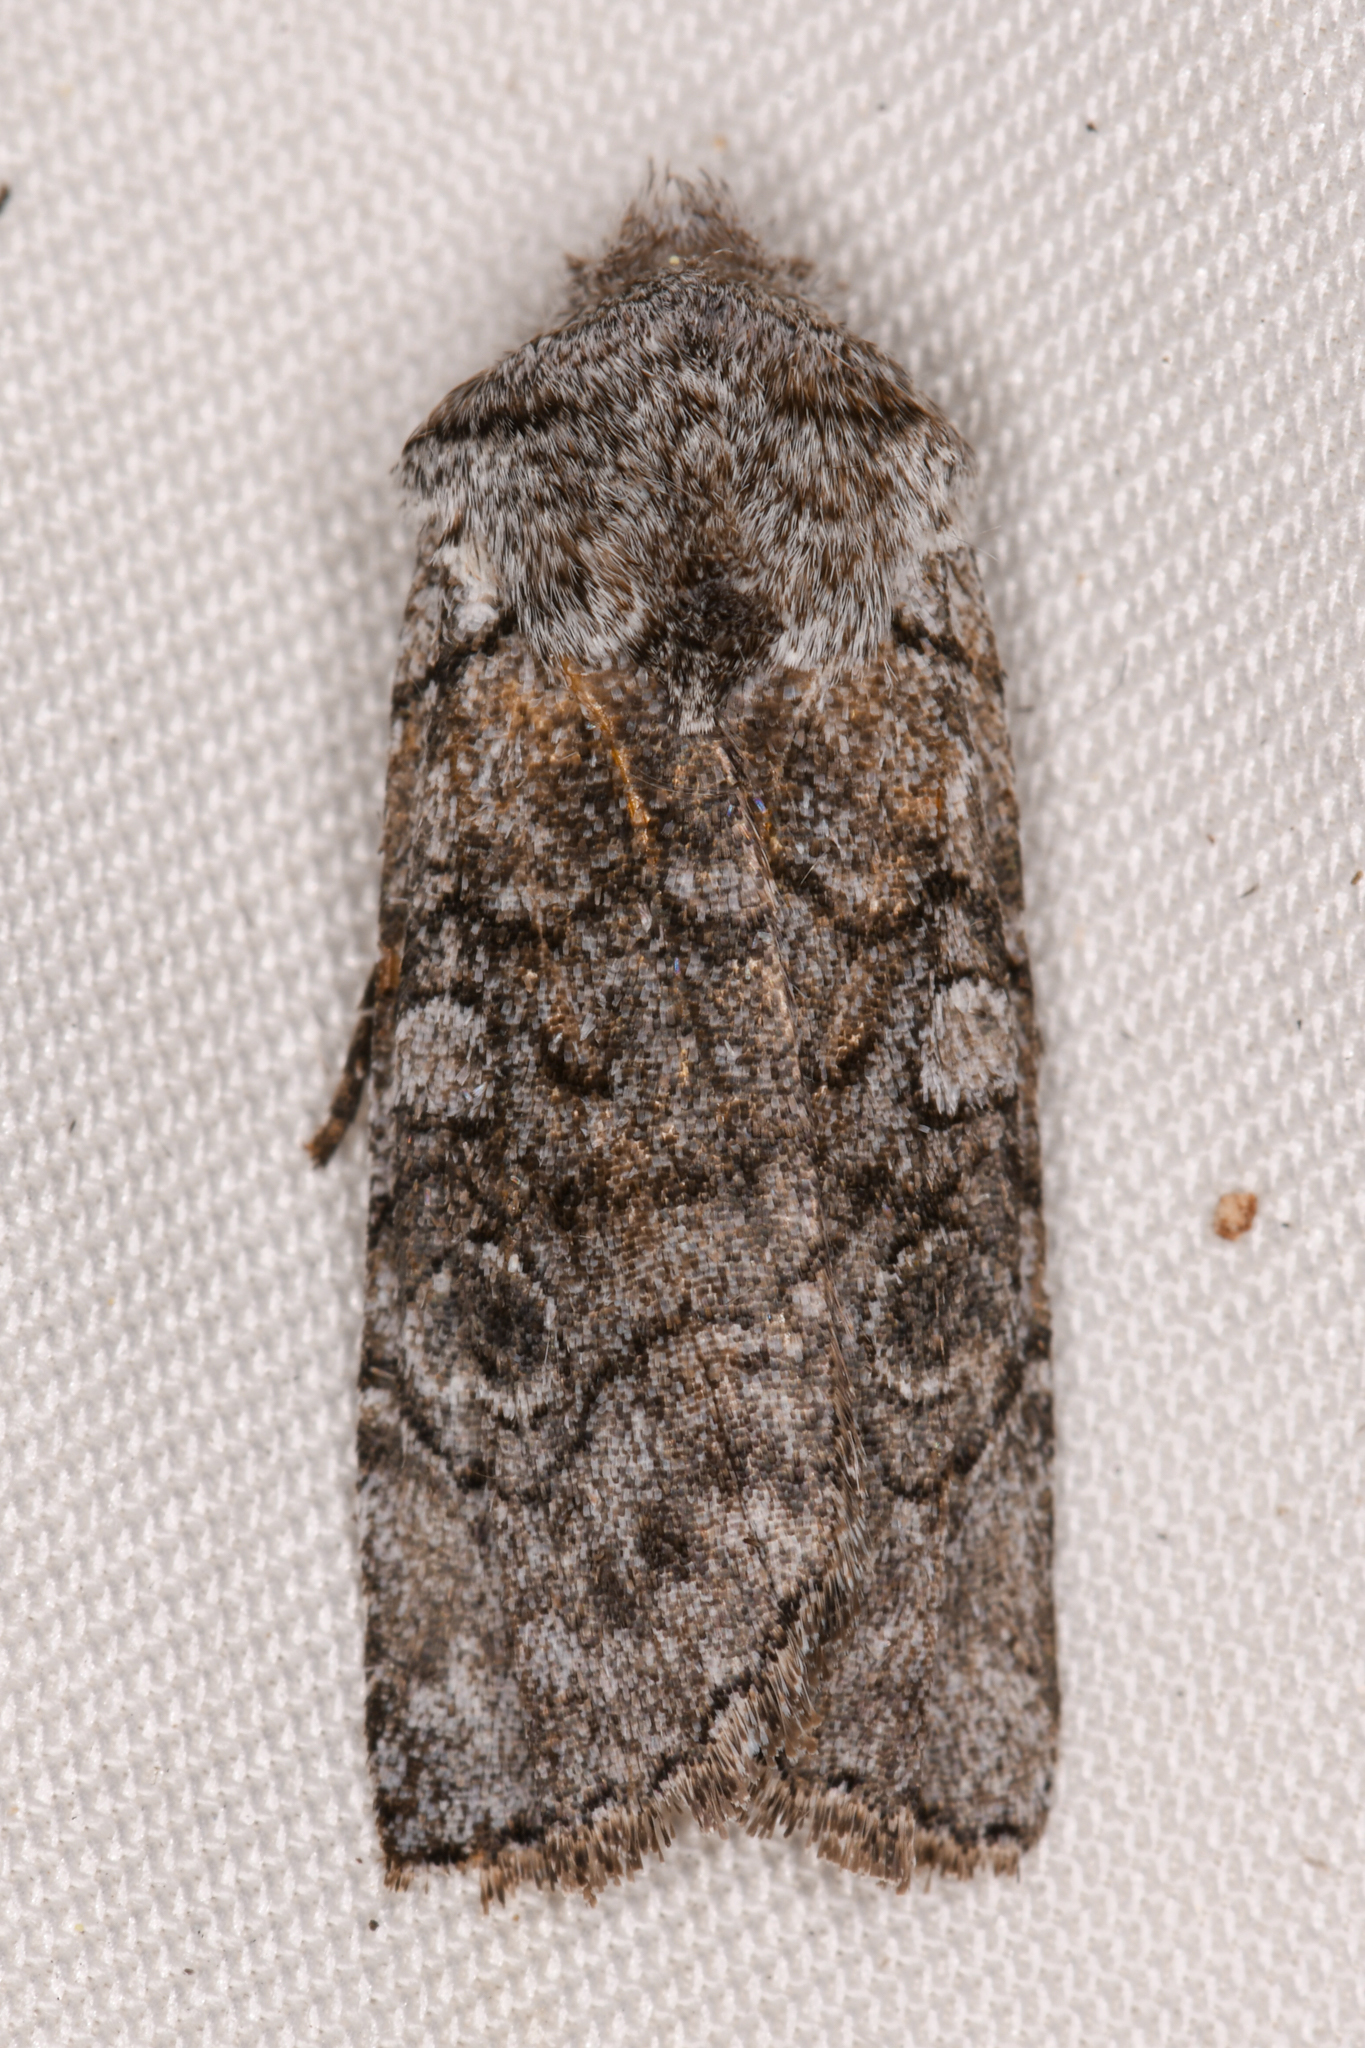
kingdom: Animalia
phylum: Arthropoda
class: Insecta
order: Lepidoptera
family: Noctuidae
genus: Litholomia
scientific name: Litholomia napaea
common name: False pinion moth
